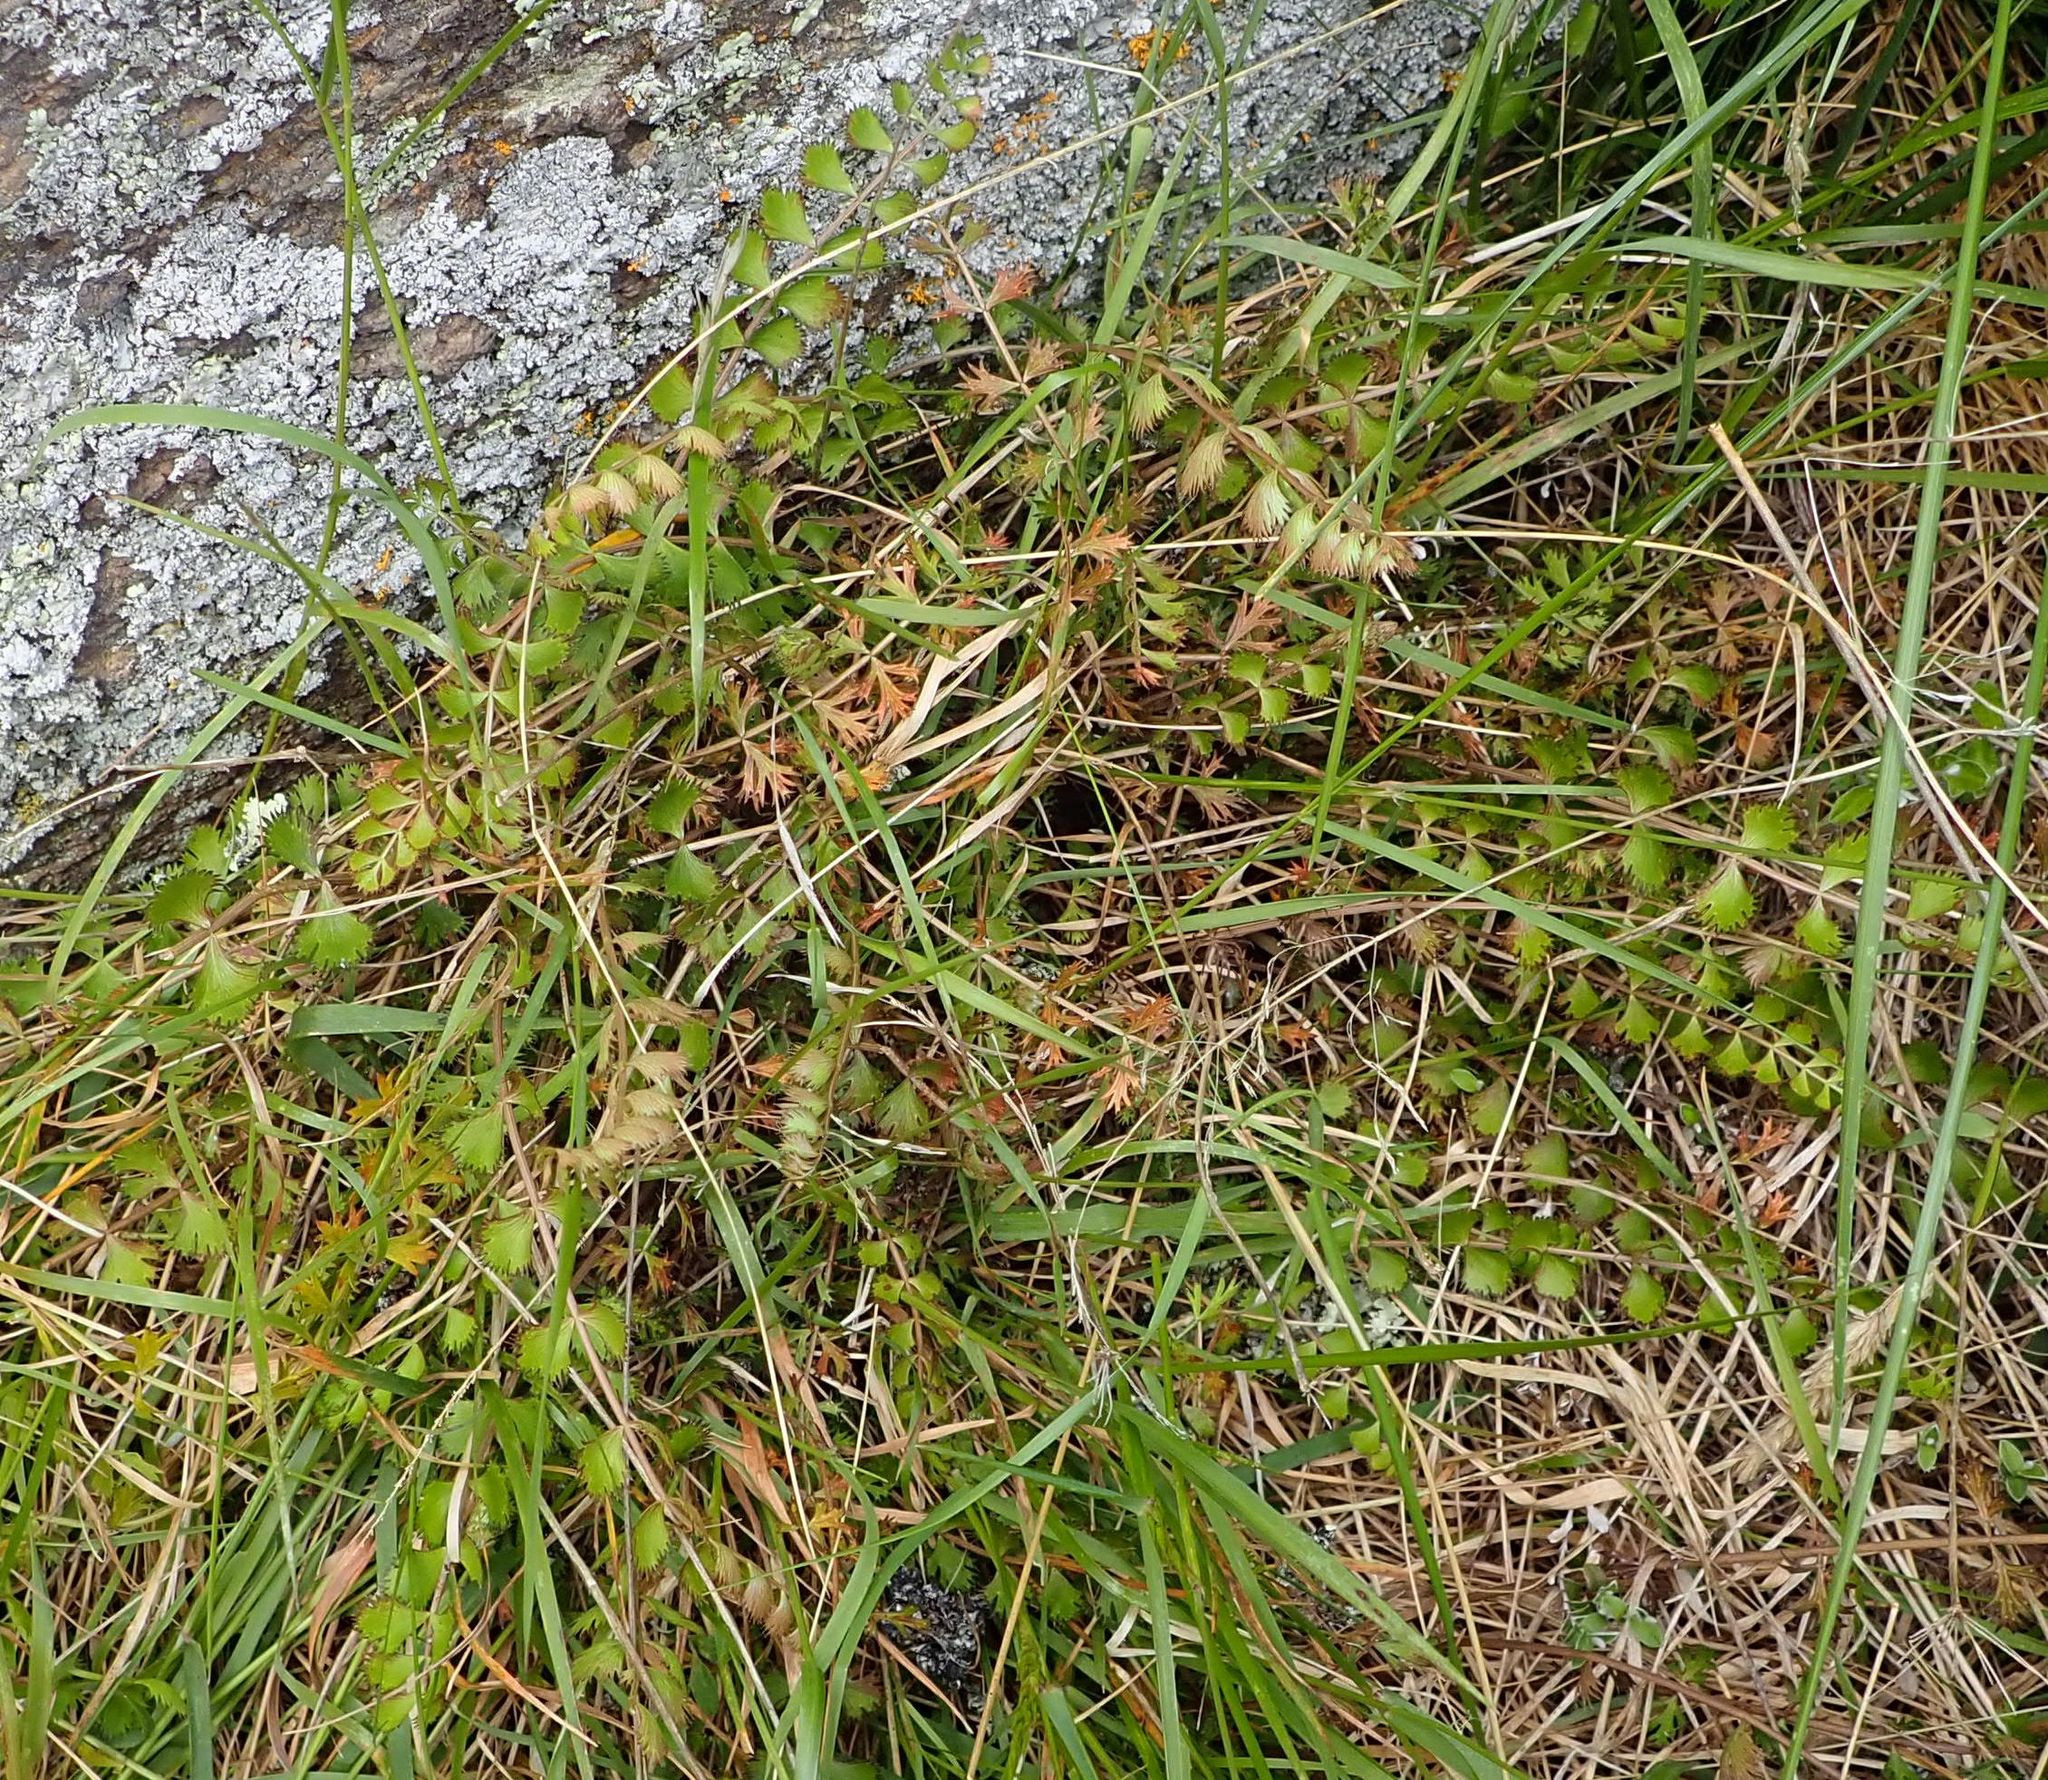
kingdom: Plantae
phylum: Tracheophyta
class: Magnoliopsida
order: Apiales
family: Apiaceae
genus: Anisotome
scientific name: Anisotome aromatica
